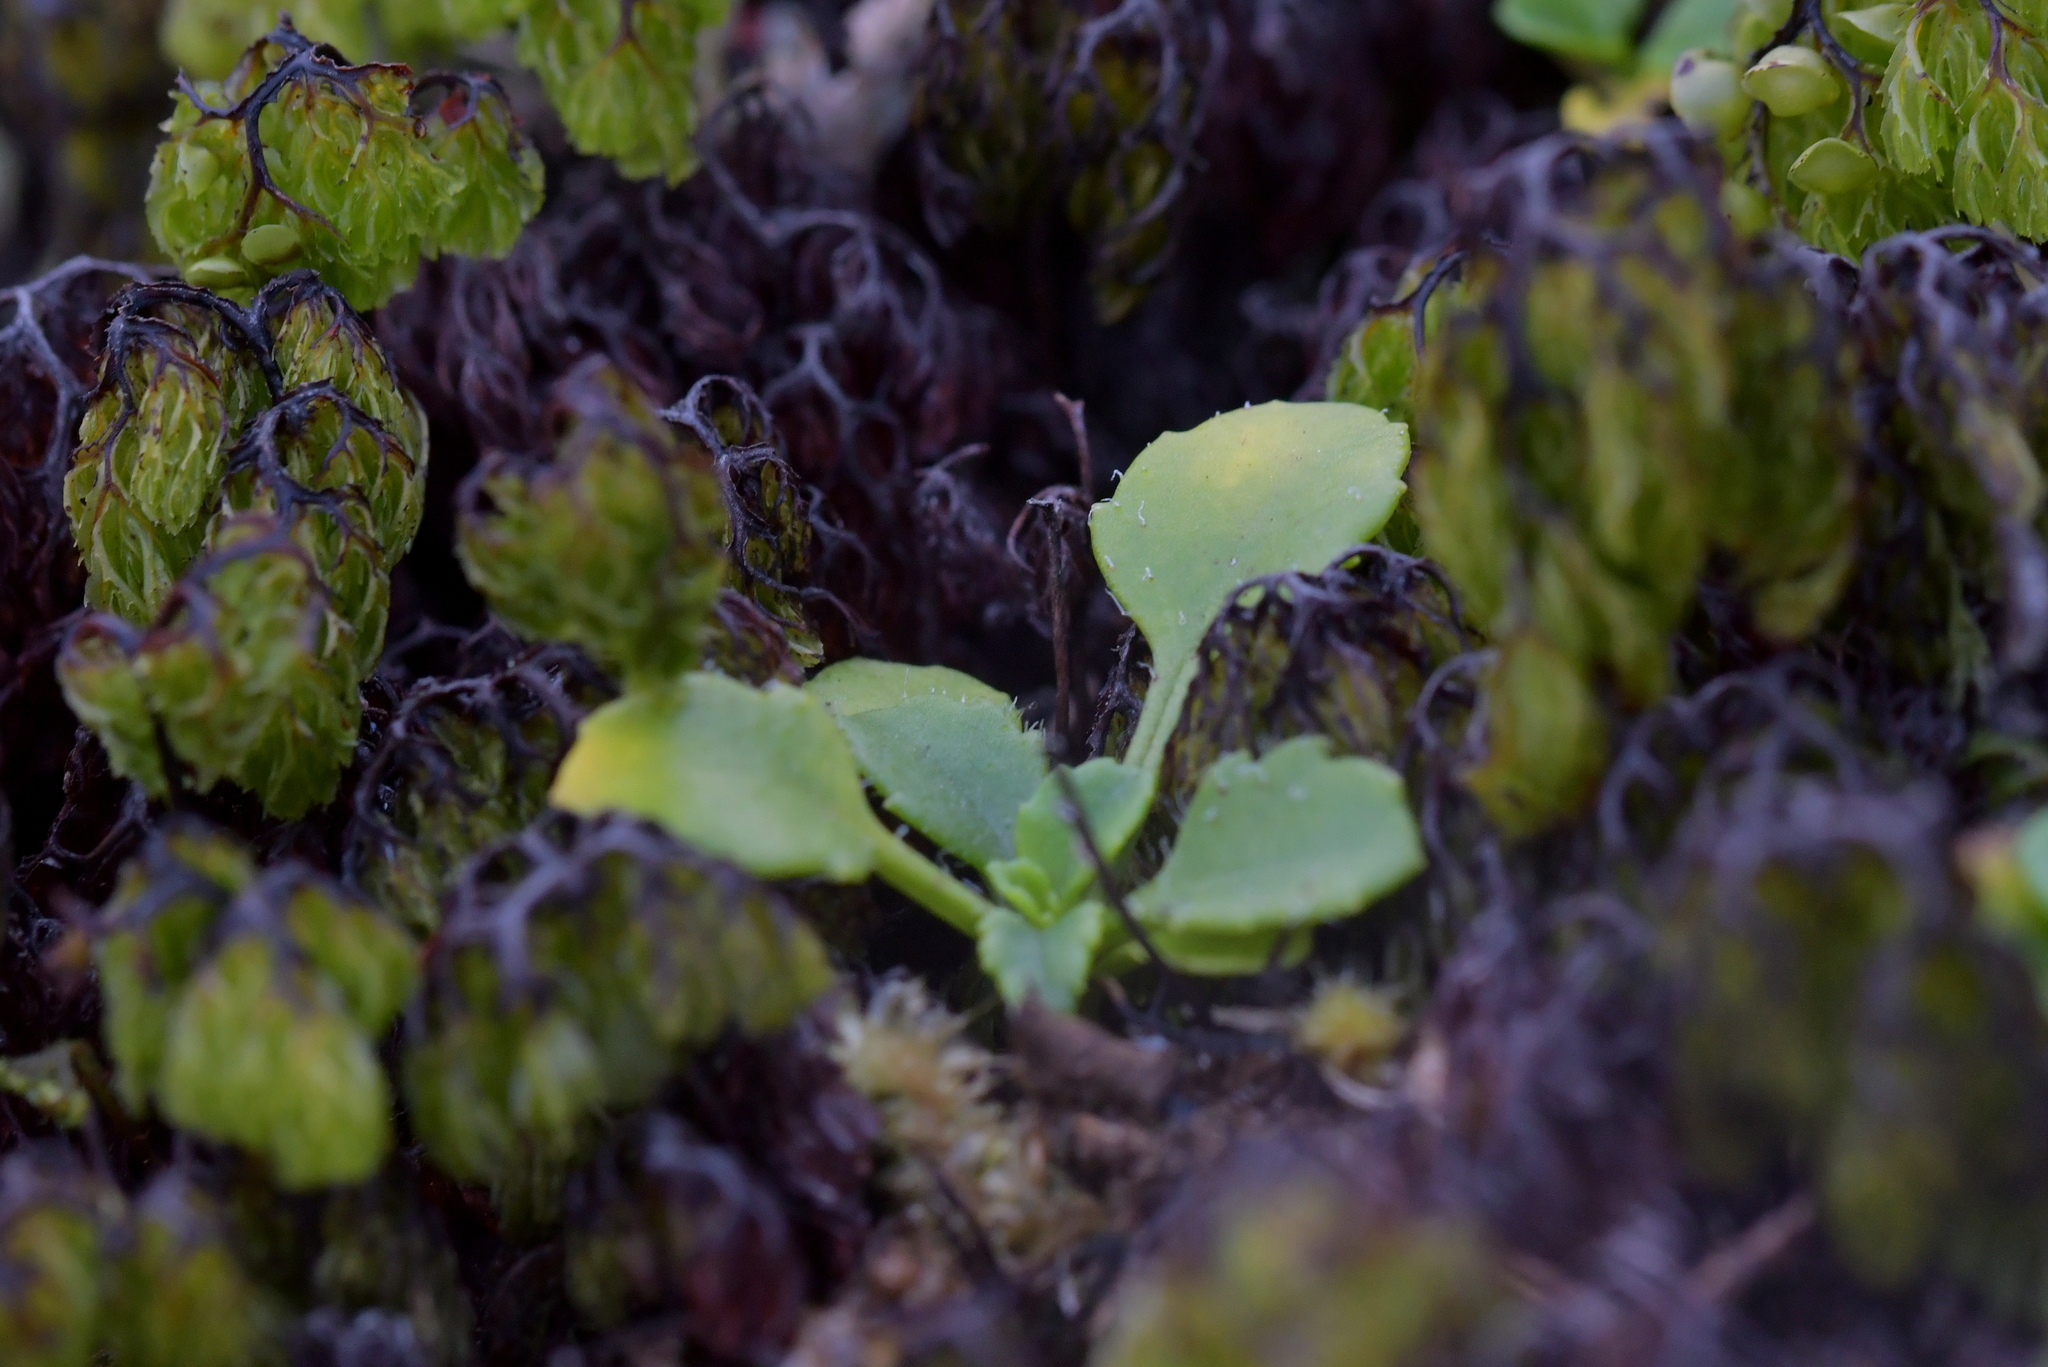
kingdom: Plantae
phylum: Tracheophyta
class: Magnoliopsida
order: Asterales
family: Asteraceae
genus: Lagenophora
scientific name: Lagenophora pumila
